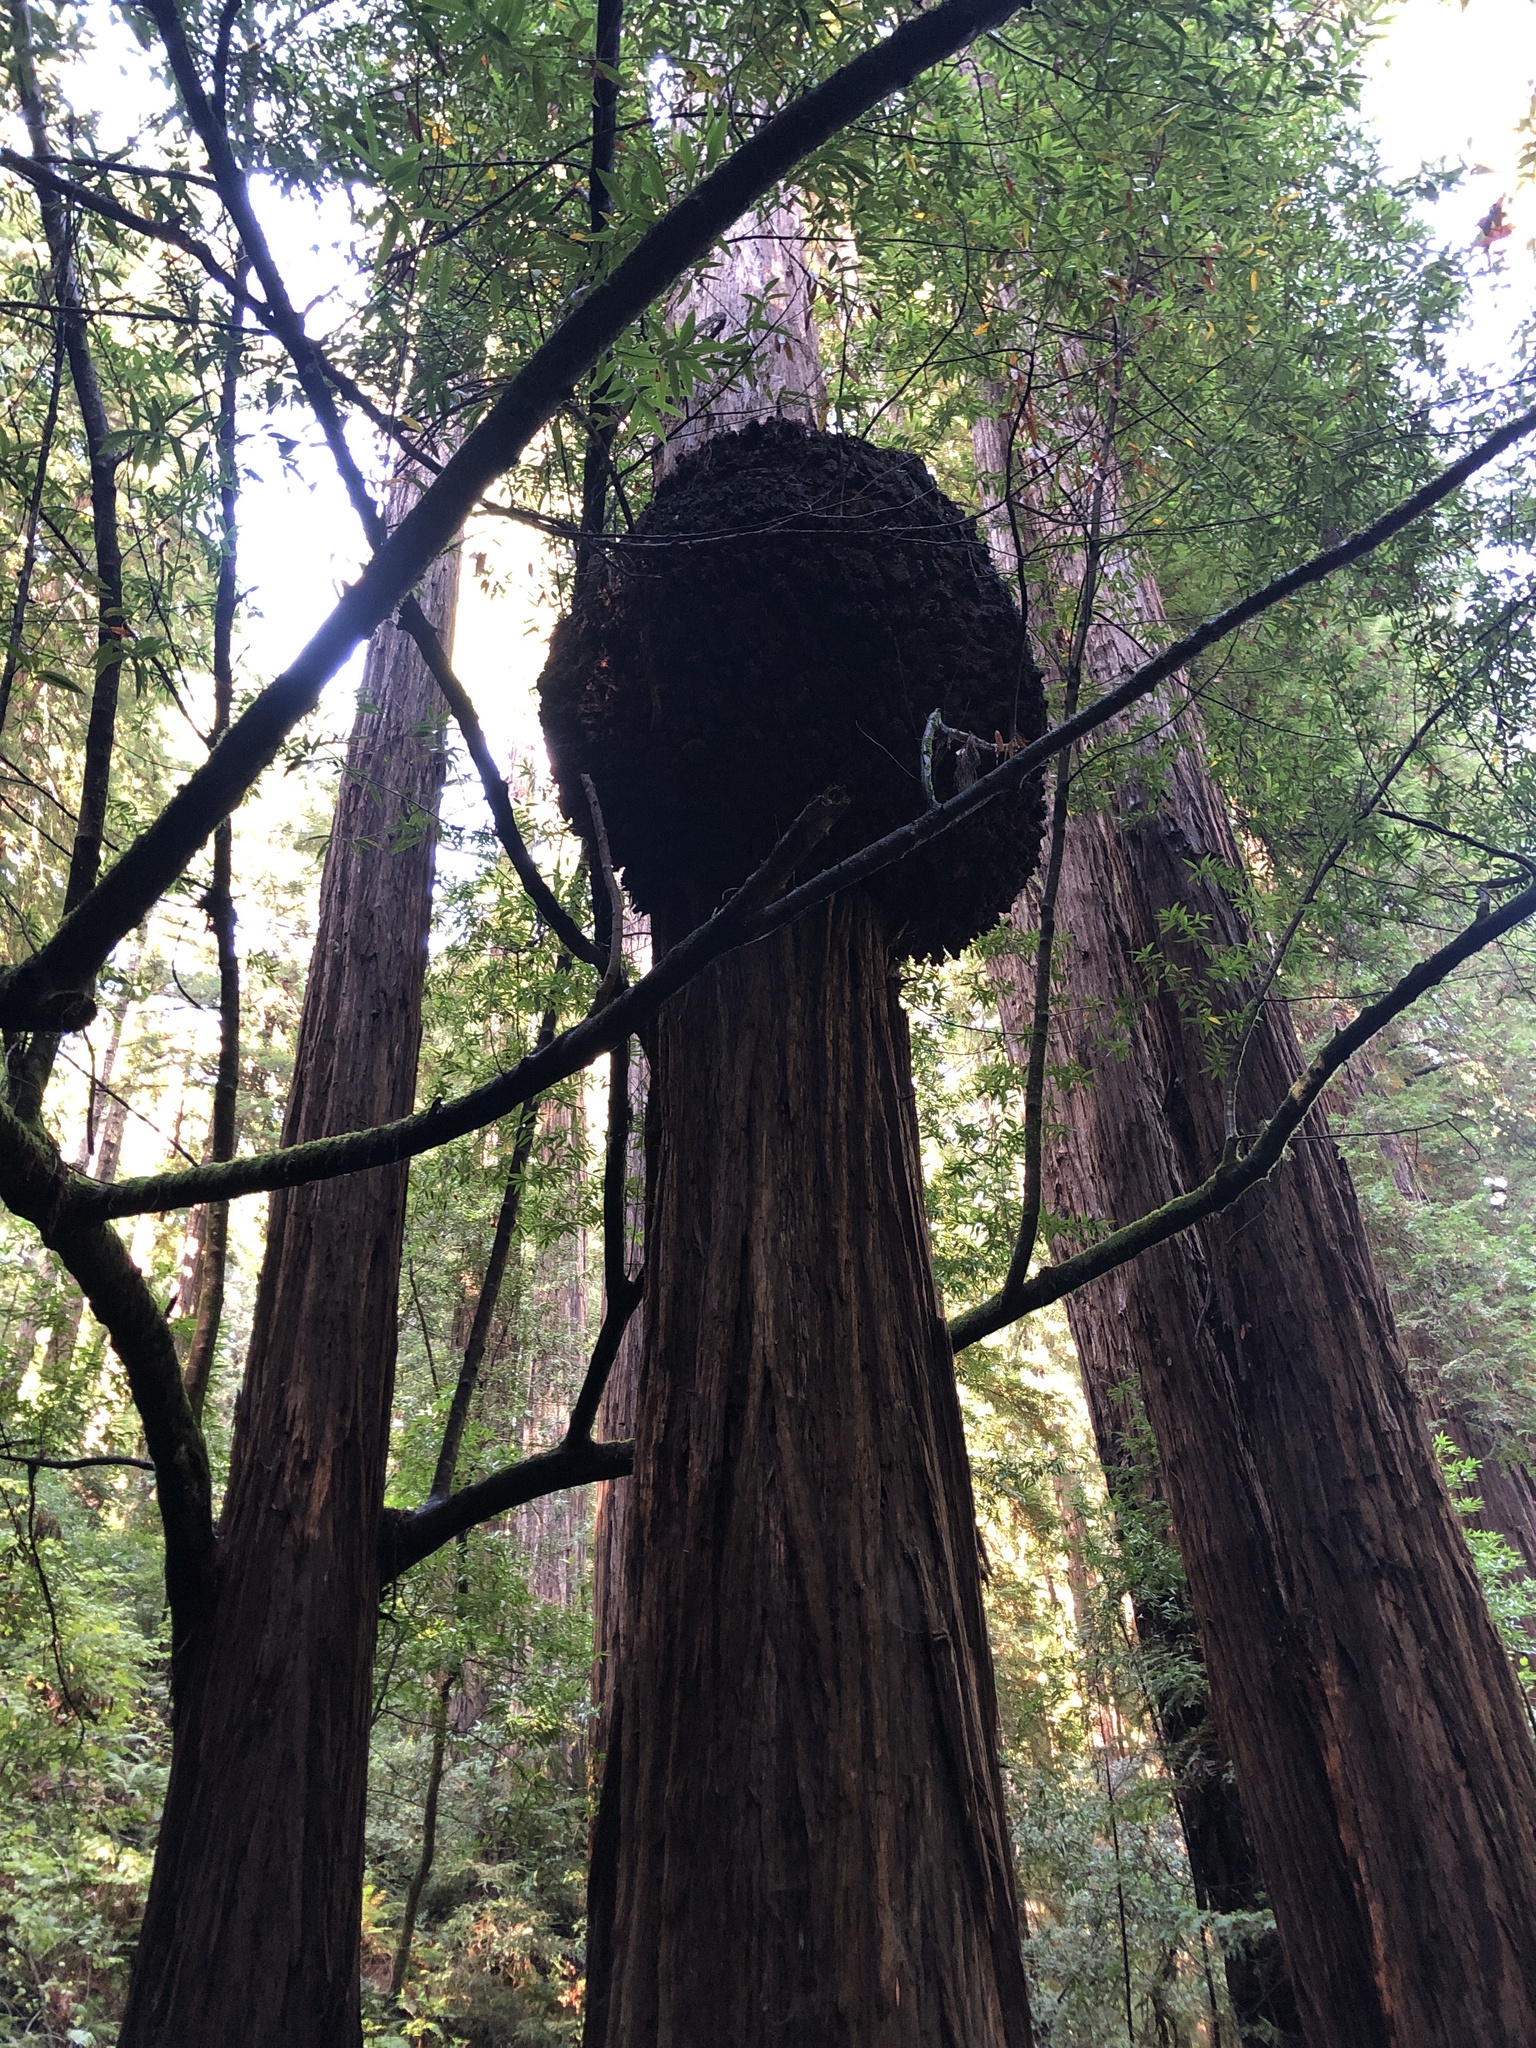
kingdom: Plantae
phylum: Tracheophyta
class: Pinopsida
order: Pinales
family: Cupressaceae
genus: Sequoia
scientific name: Sequoia sempervirens
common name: Coast redwood
